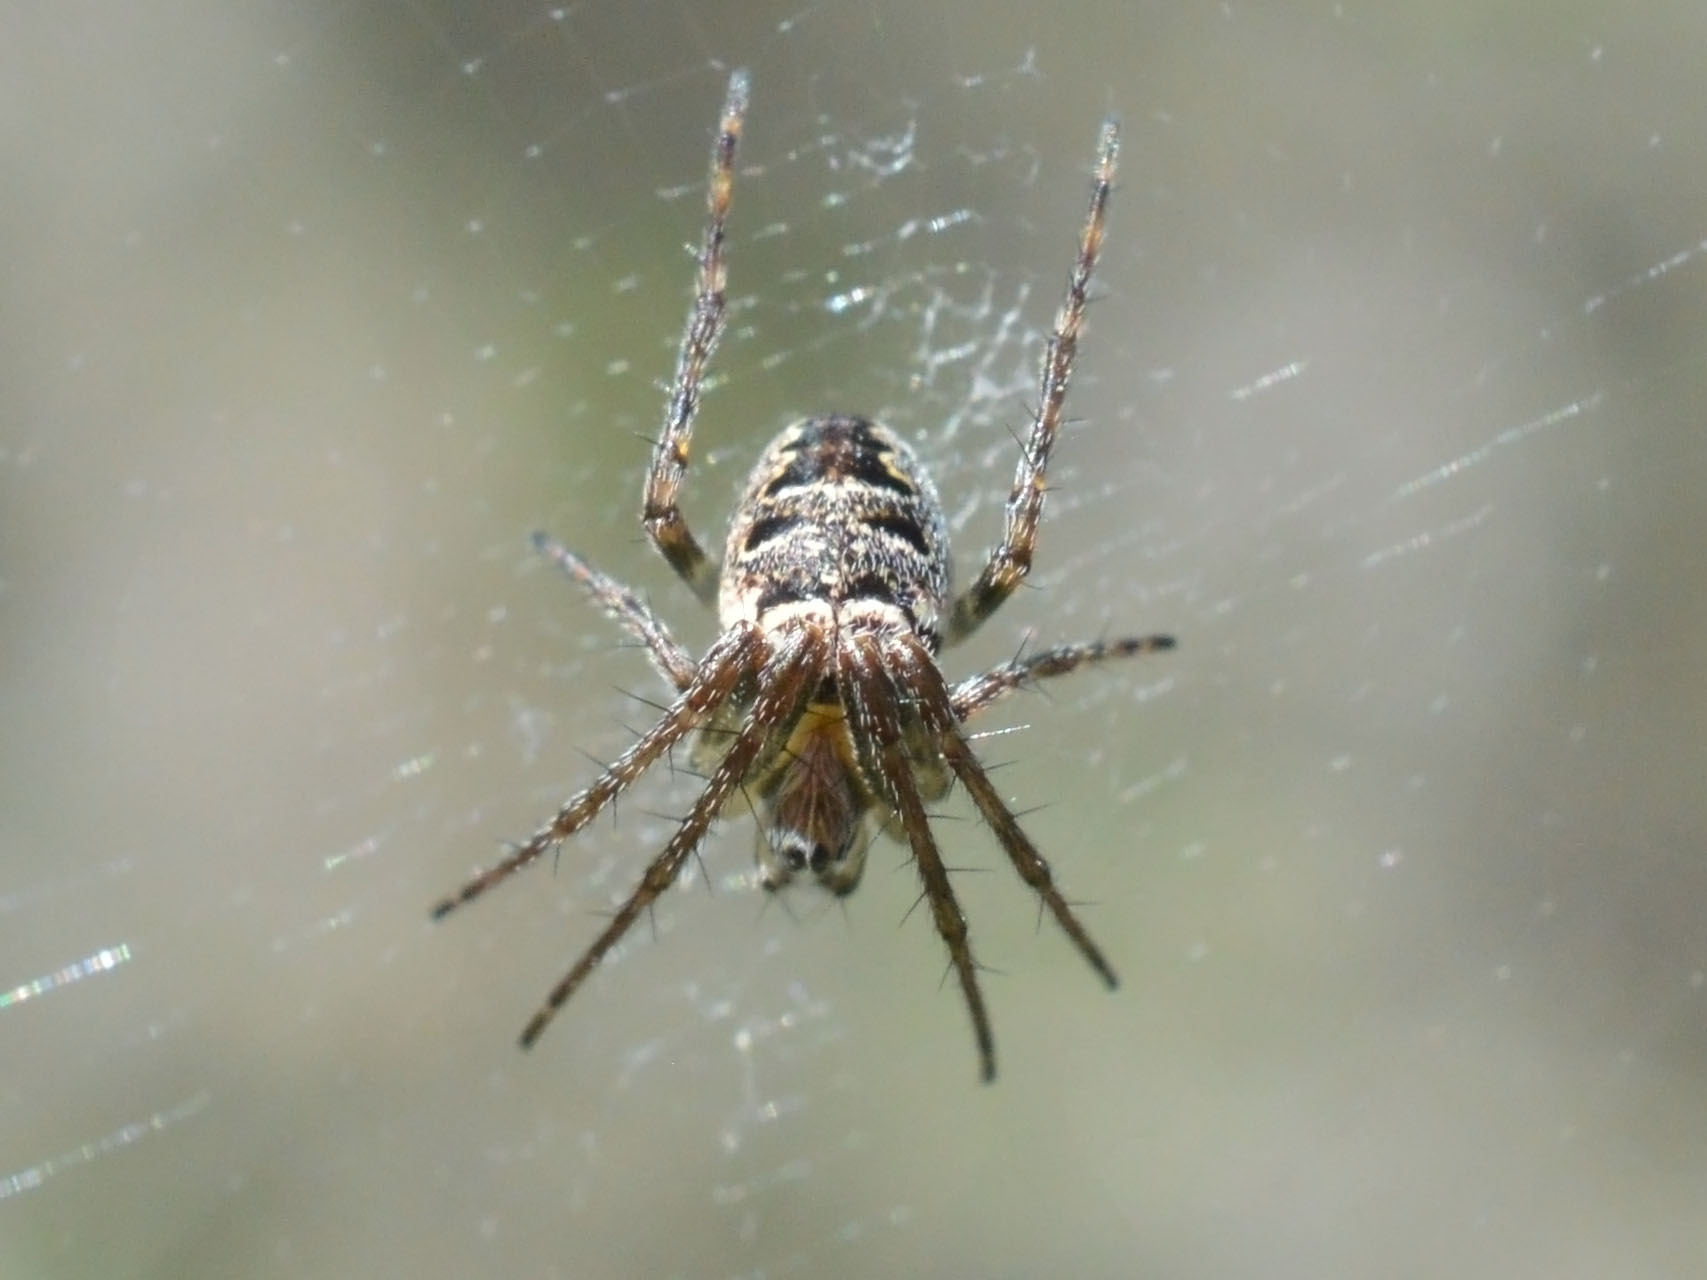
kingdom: Animalia
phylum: Arthropoda
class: Arachnida
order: Araneae
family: Araneidae
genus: Zilla
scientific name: Zilla diodia
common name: Zilla diodia
